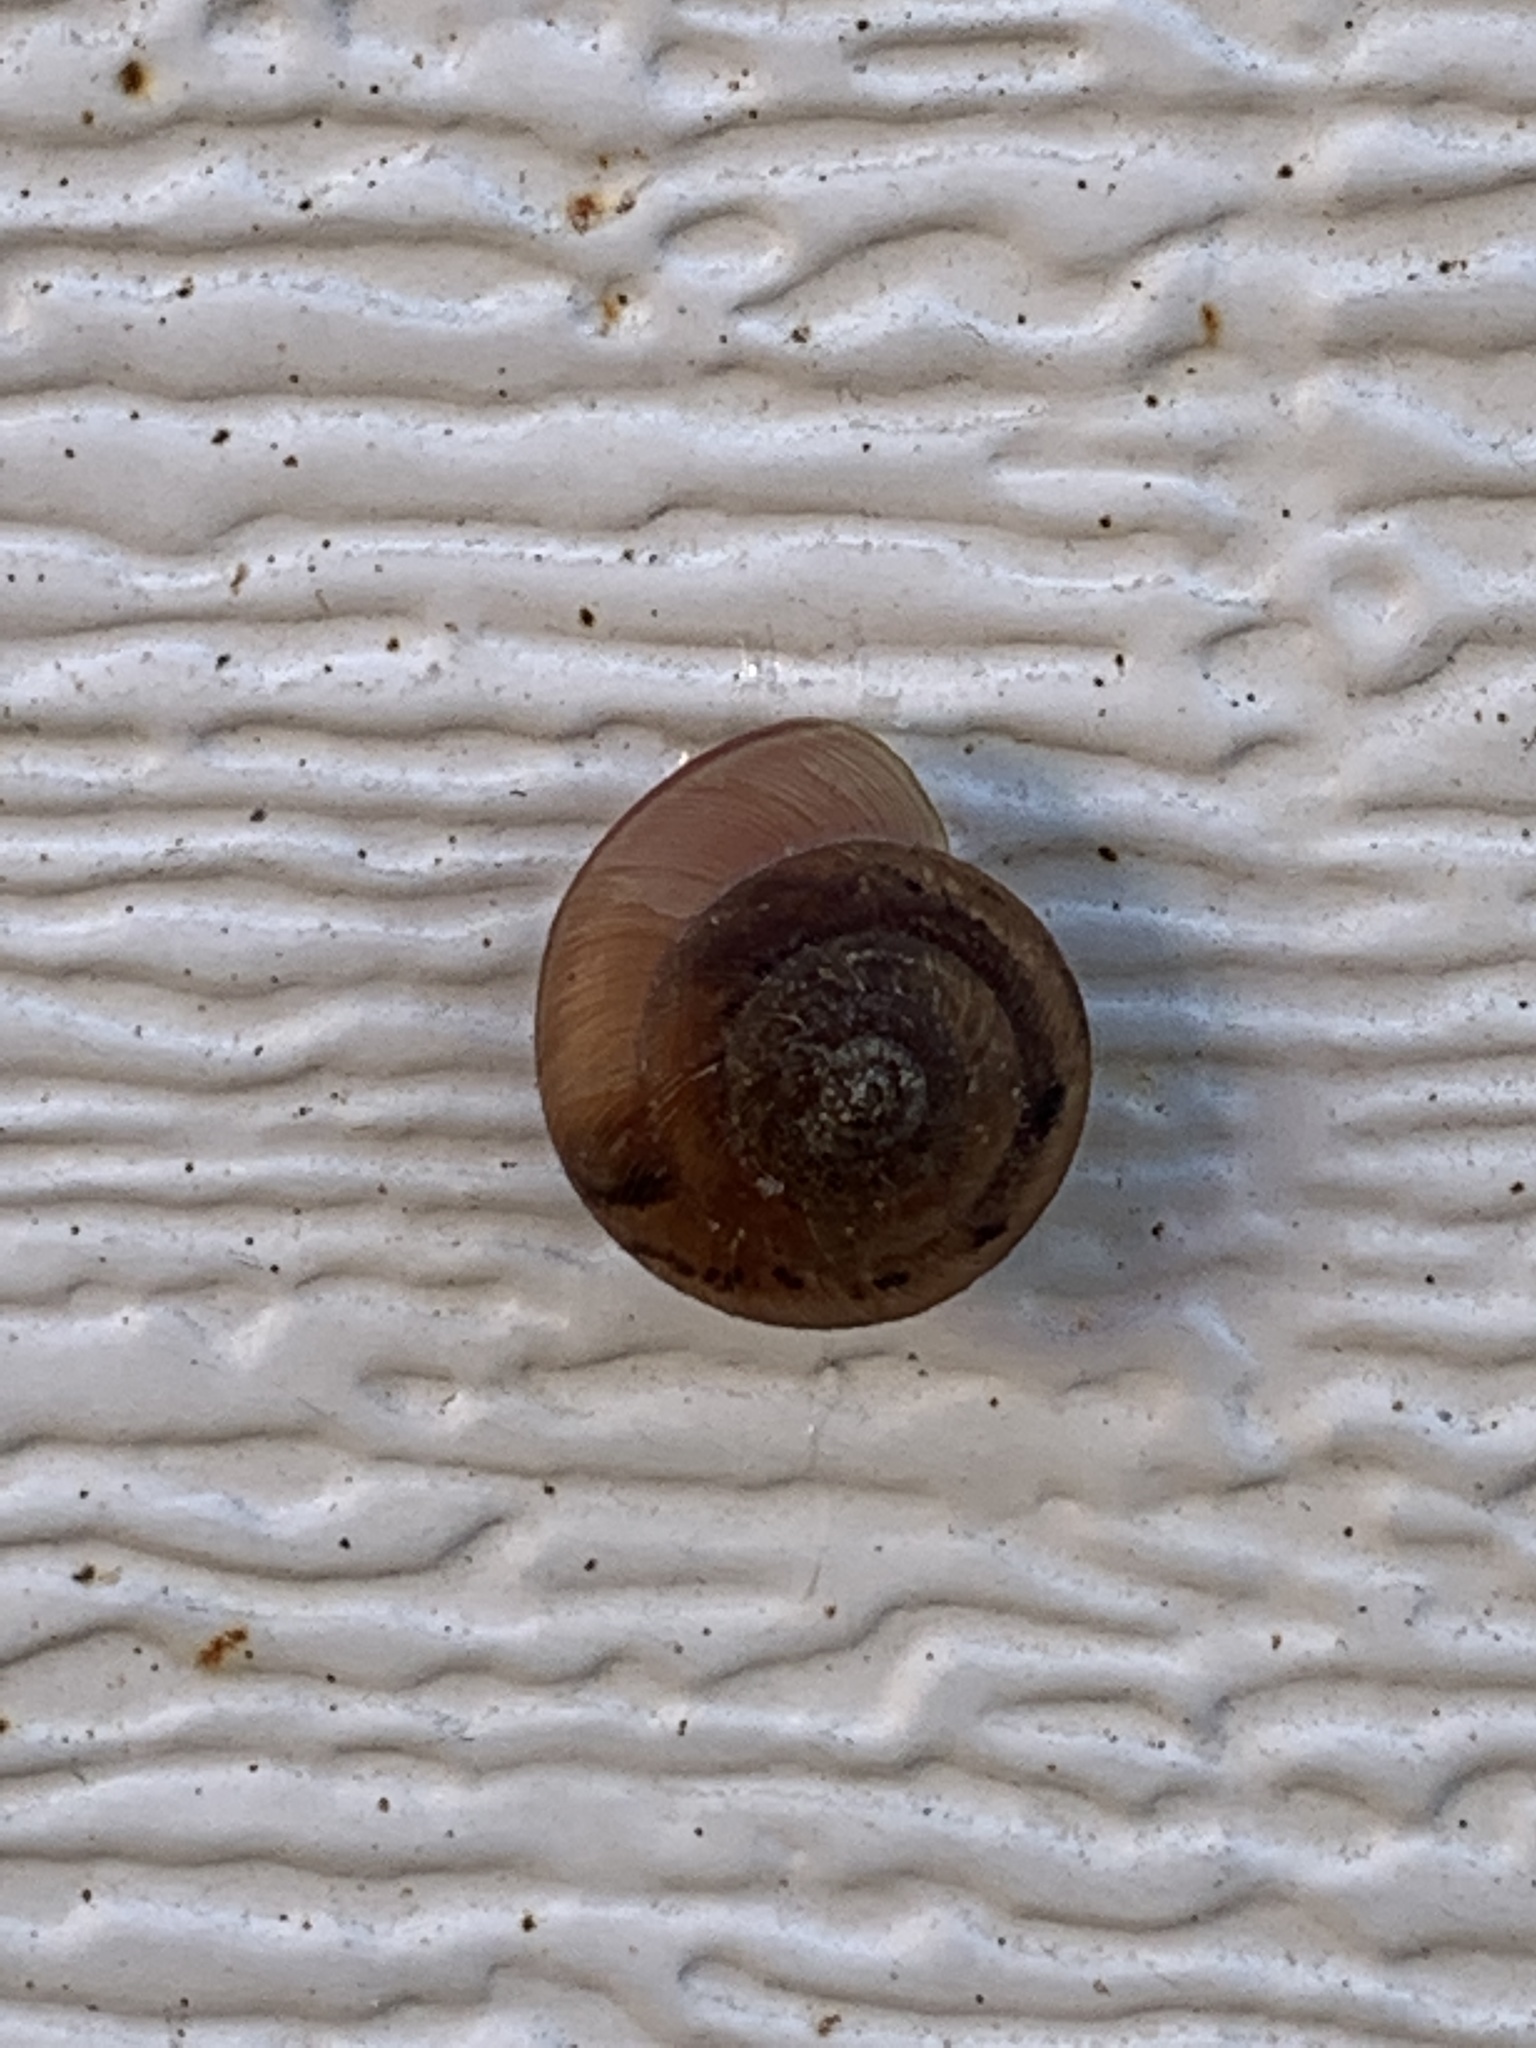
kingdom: Animalia
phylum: Mollusca
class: Gastropoda
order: Stylommatophora
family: Camaenidae
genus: Bradybaena
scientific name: Bradybaena similaris
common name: Asian trampsnail
